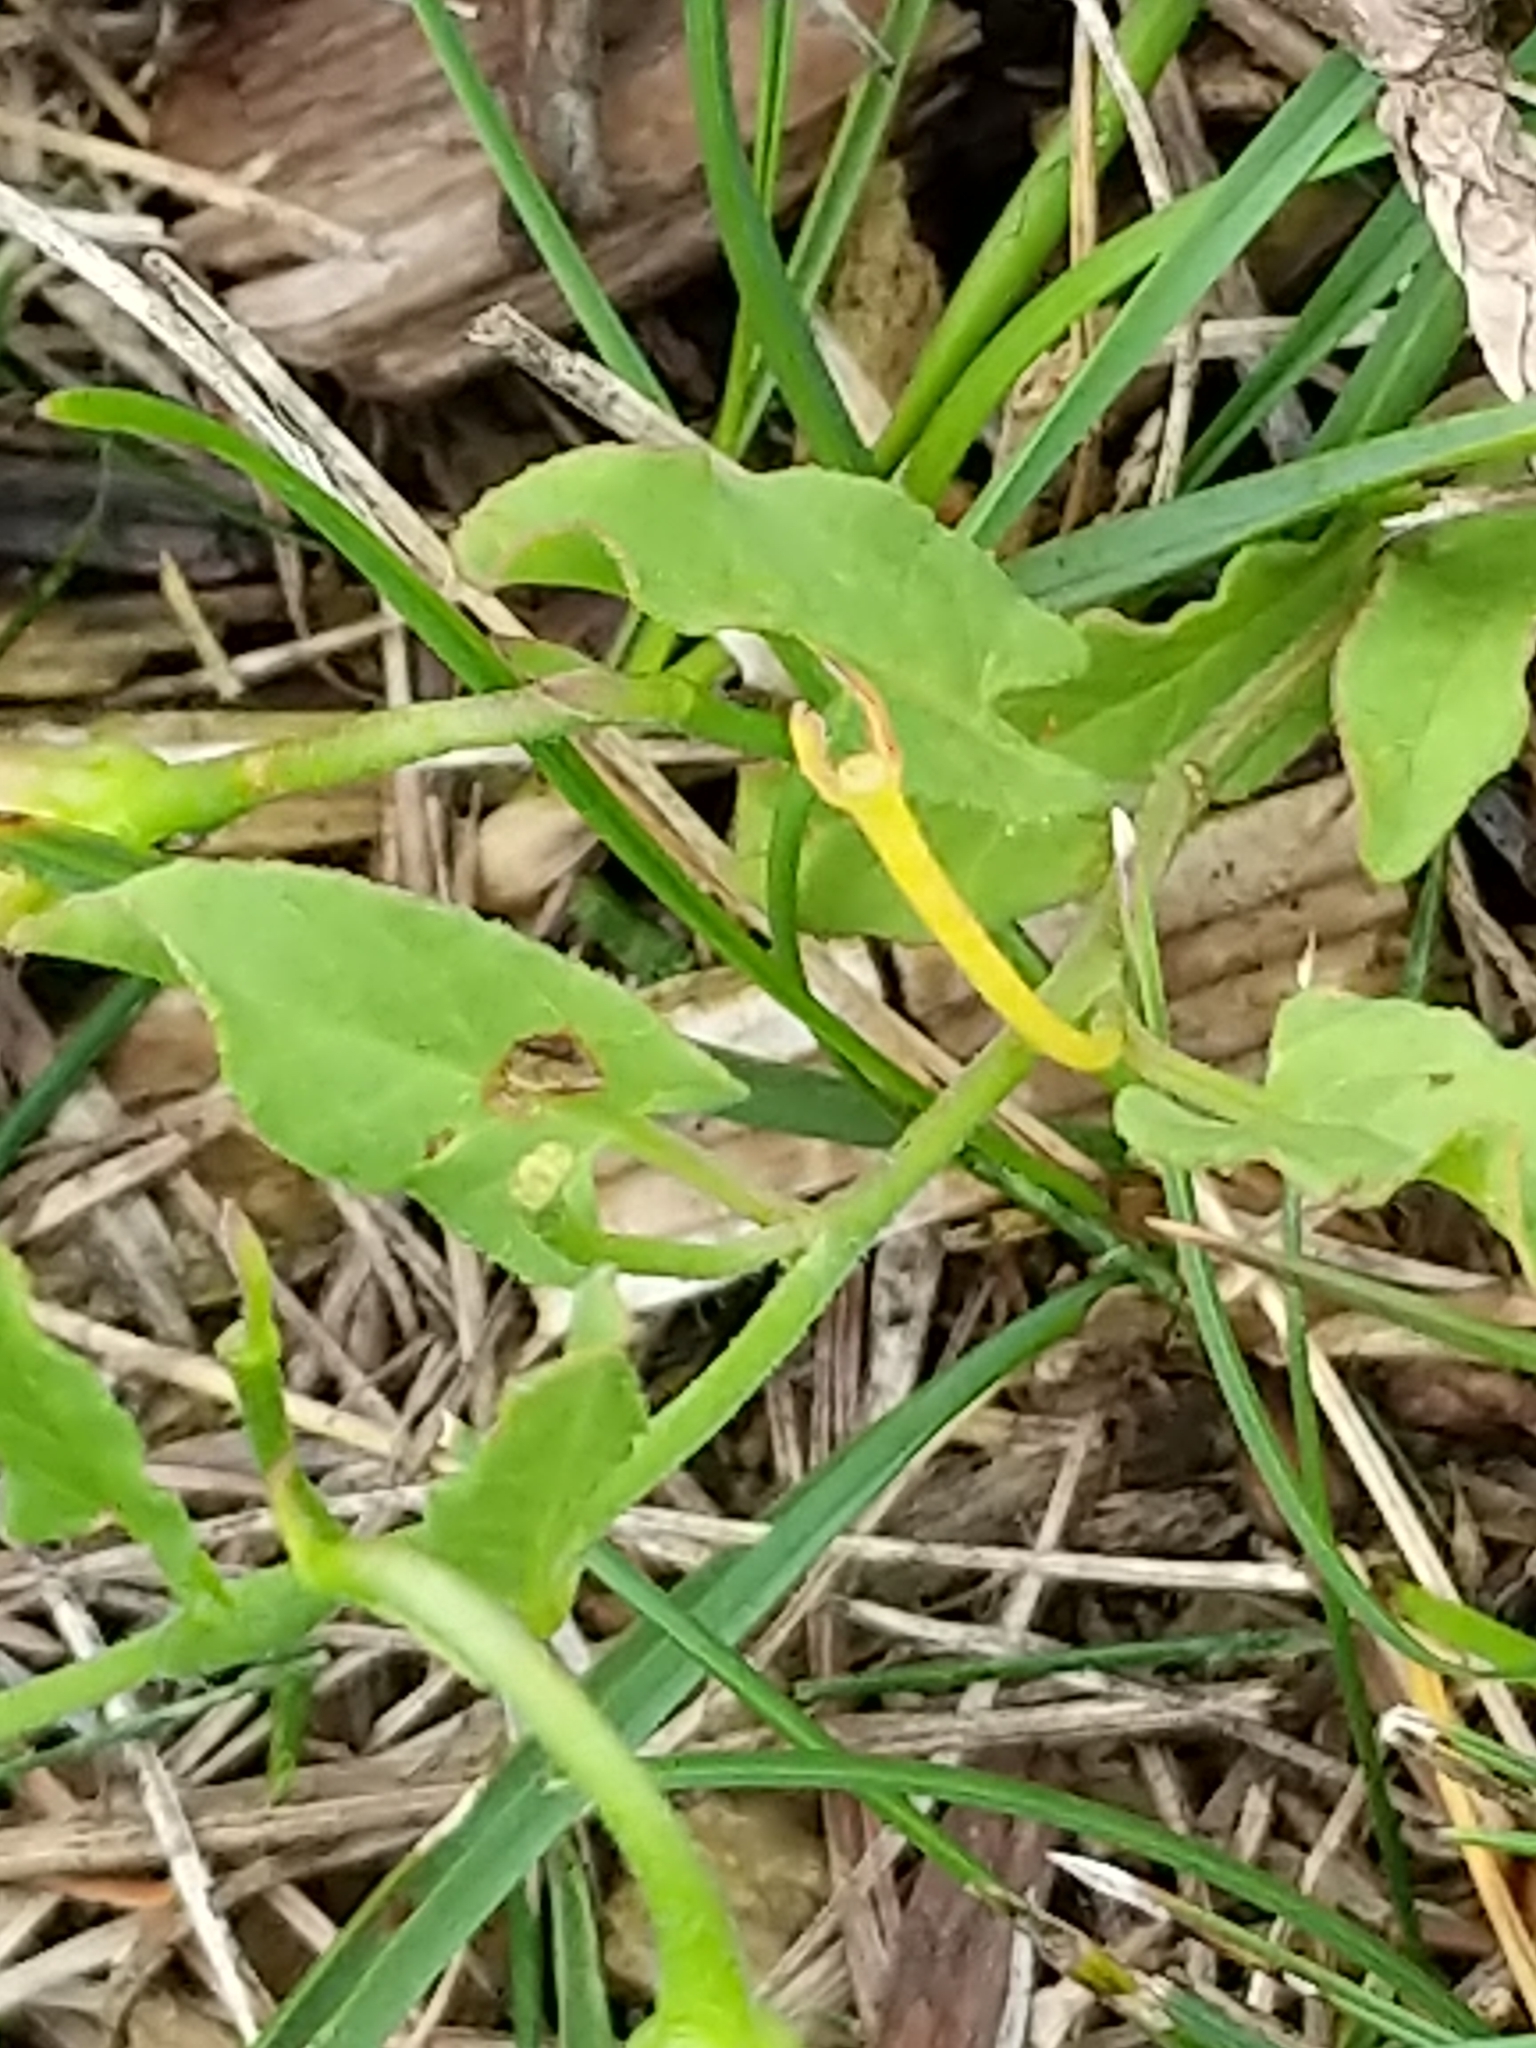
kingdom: Plantae
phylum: Tracheophyta
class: Magnoliopsida
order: Solanales
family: Convolvulaceae
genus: Convolvulus
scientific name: Convolvulus arvensis
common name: Field bindweed
